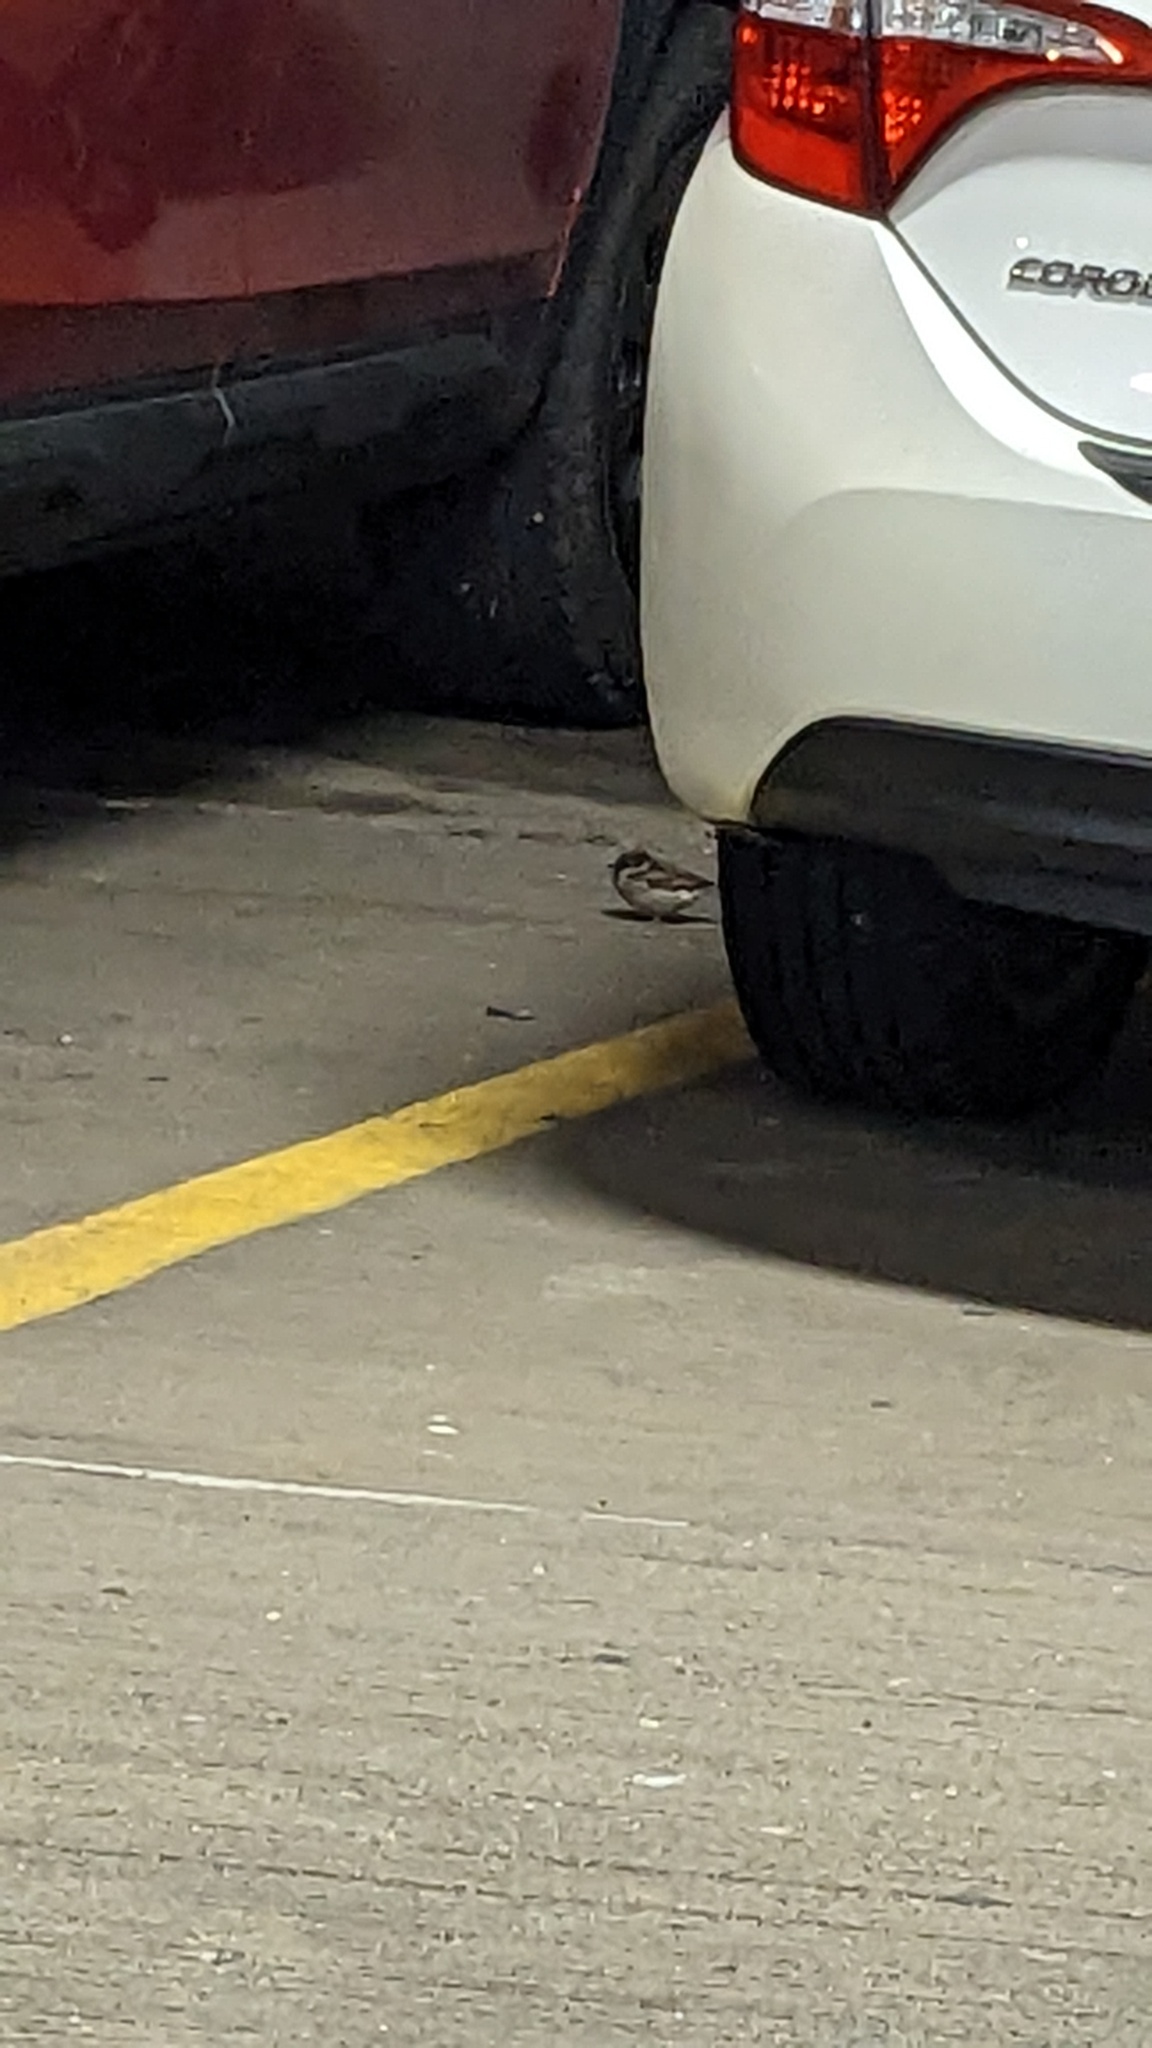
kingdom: Animalia
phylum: Chordata
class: Aves
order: Passeriformes
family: Passeridae
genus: Passer
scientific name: Passer domesticus
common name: House sparrow
